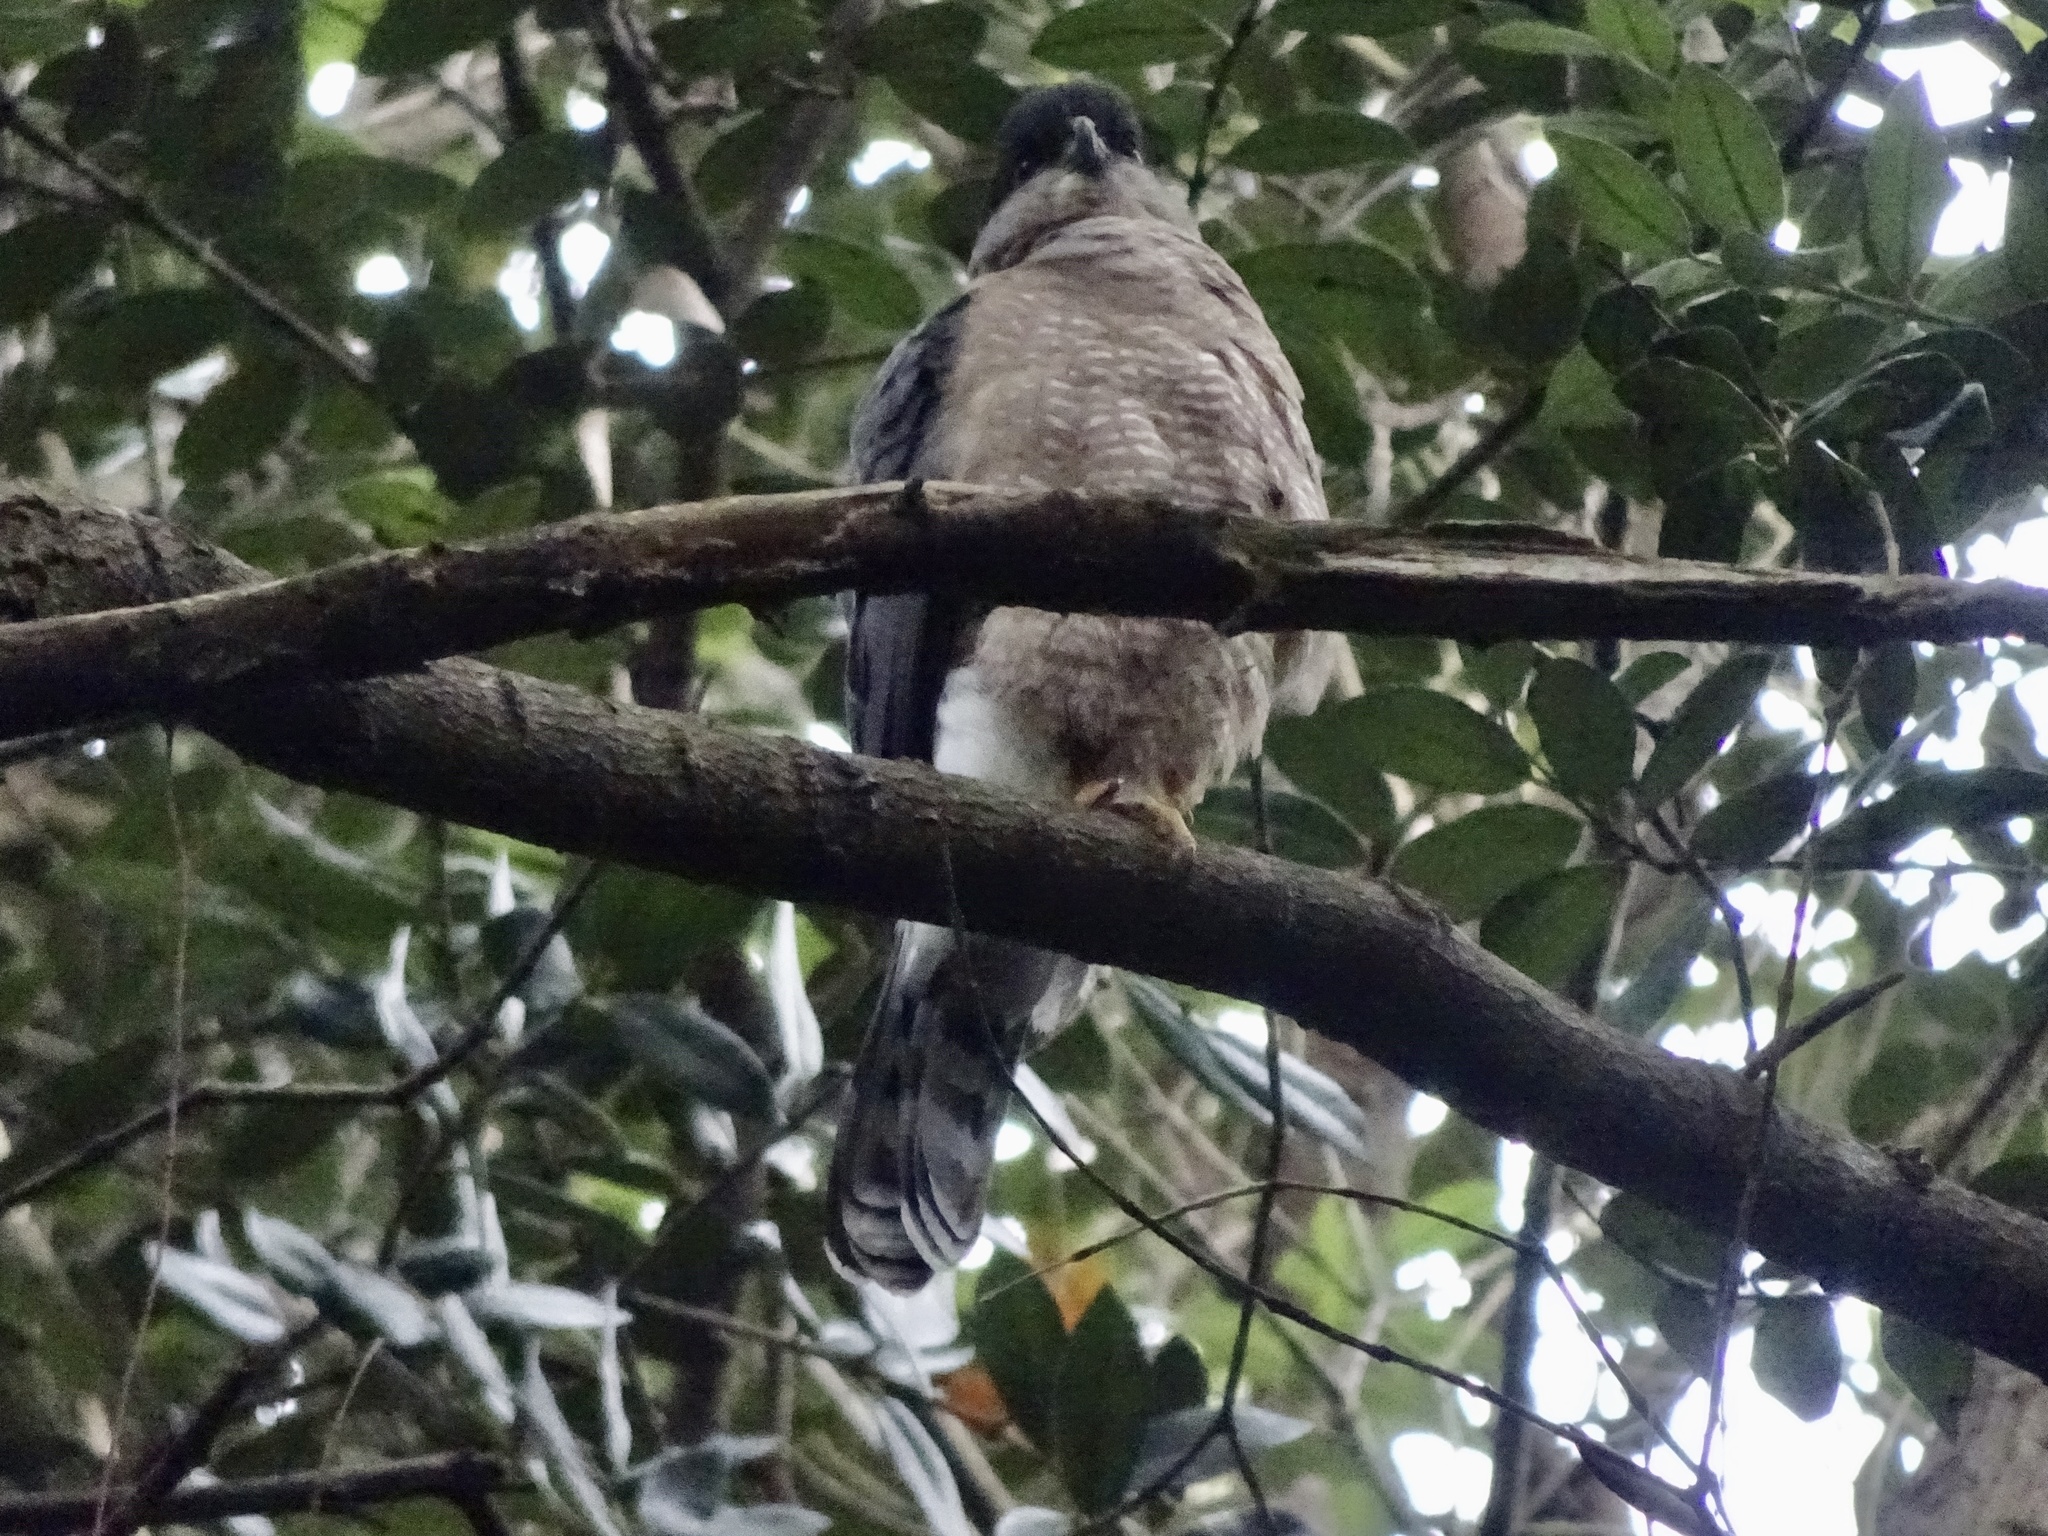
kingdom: Animalia
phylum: Chordata
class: Aves
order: Accipitriformes
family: Accipitridae
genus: Accipiter
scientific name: Accipiter cooperii
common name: Cooper's hawk
